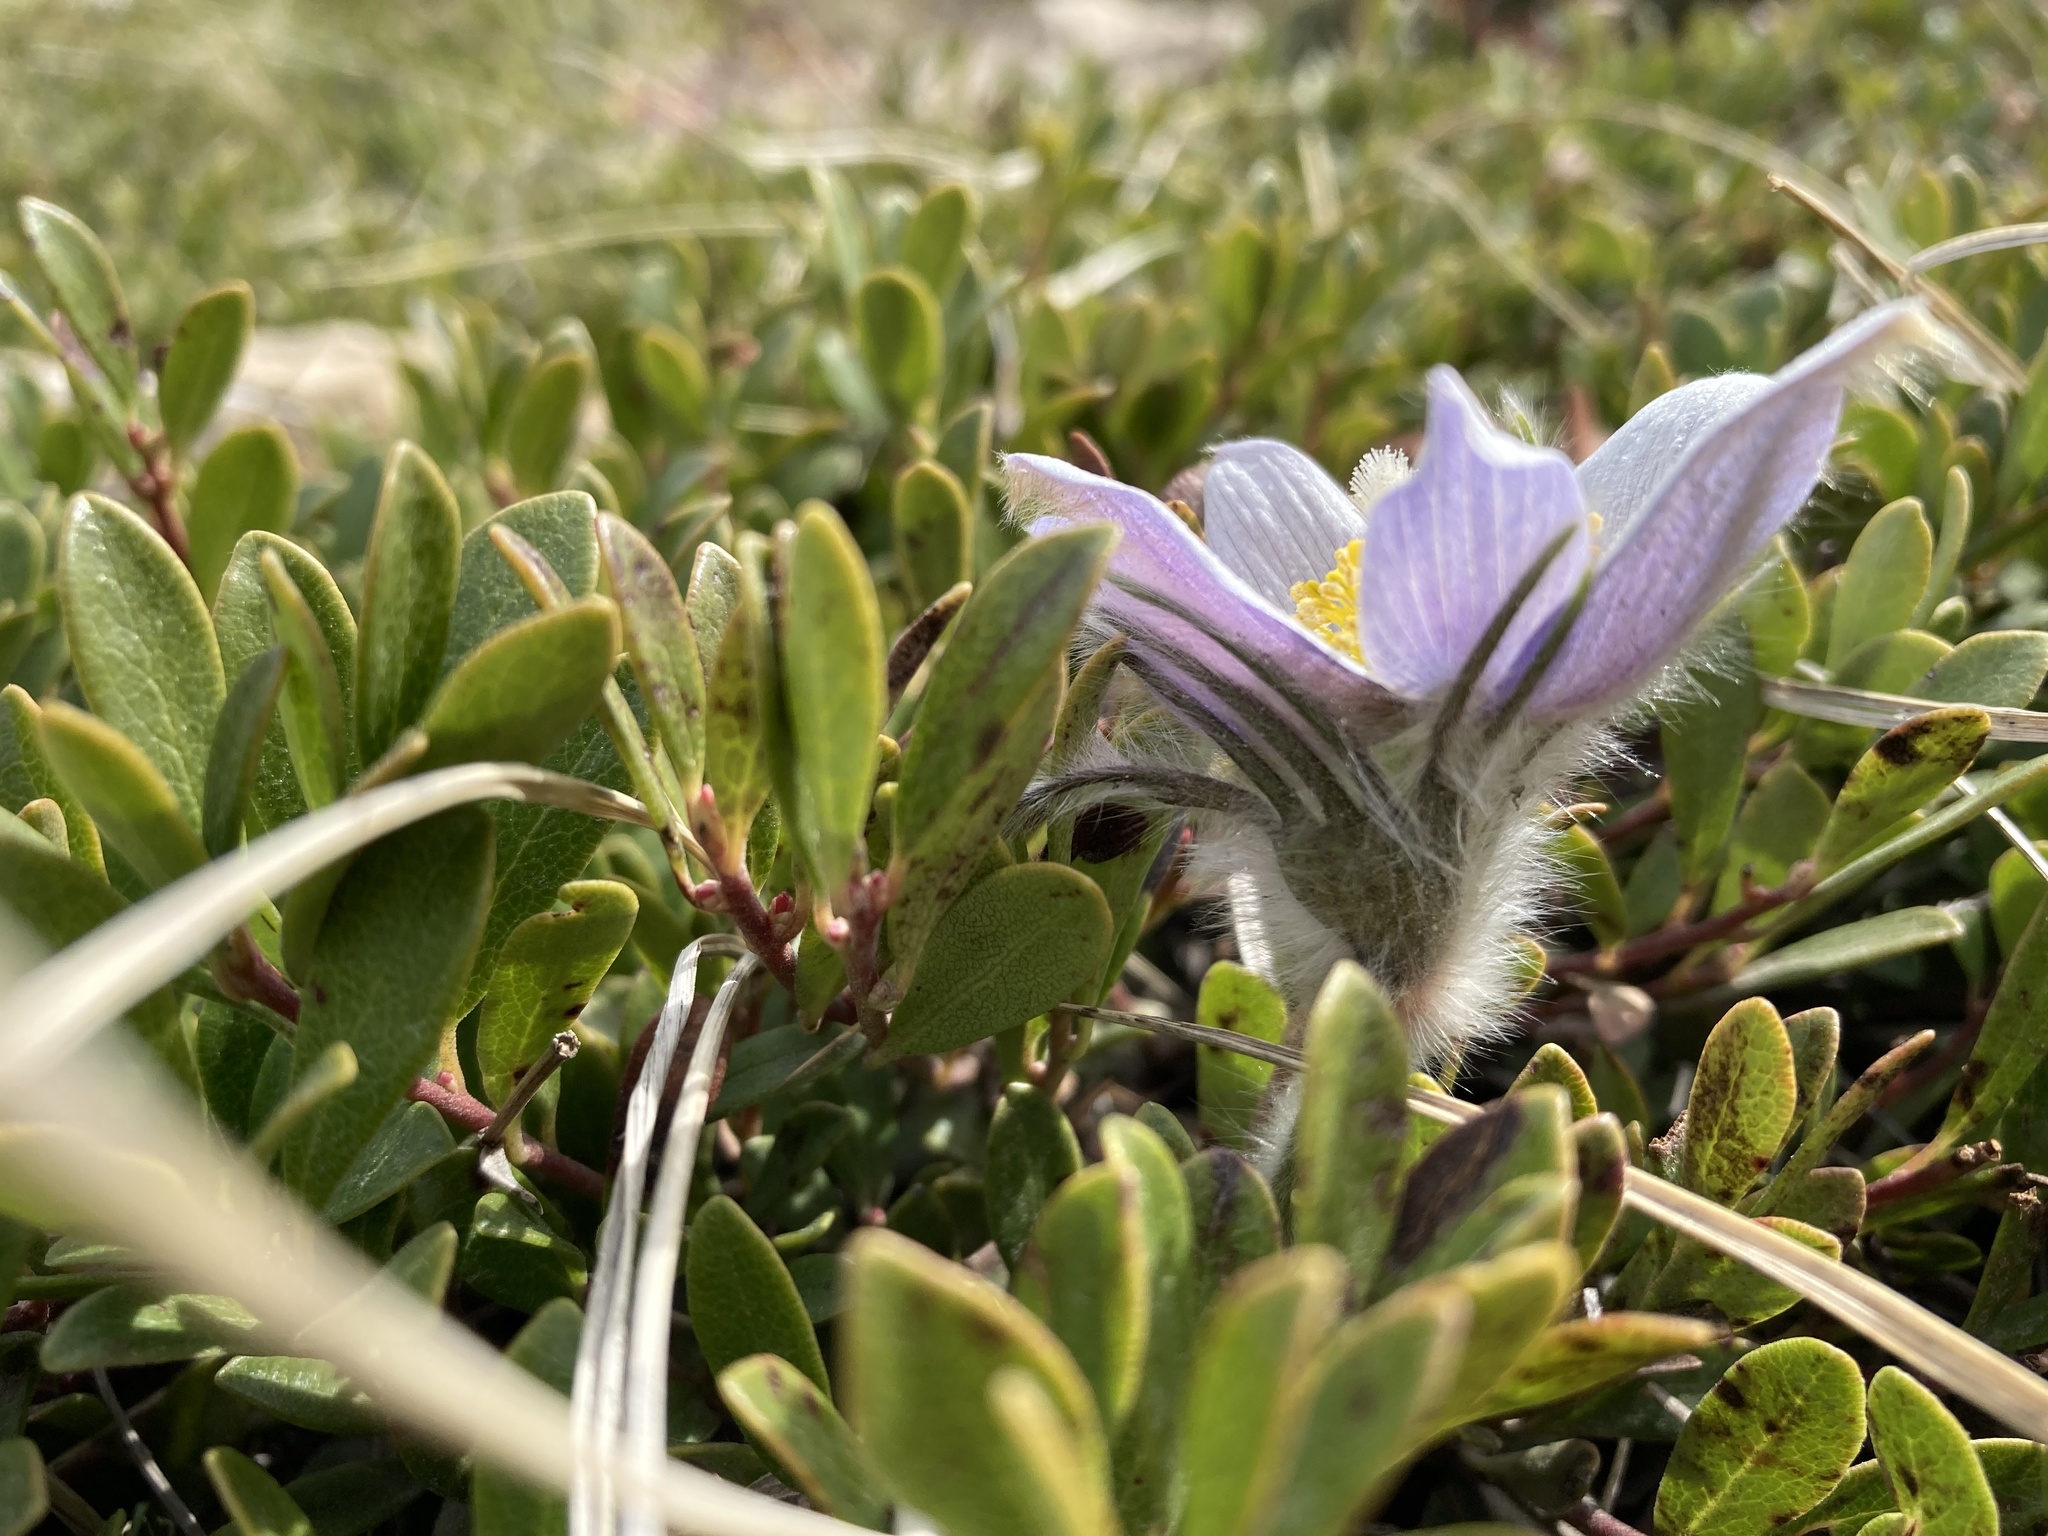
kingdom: Plantae
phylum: Tracheophyta
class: Magnoliopsida
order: Ranunculales
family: Ranunculaceae
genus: Pulsatilla
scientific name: Pulsatilla nuttalliana
